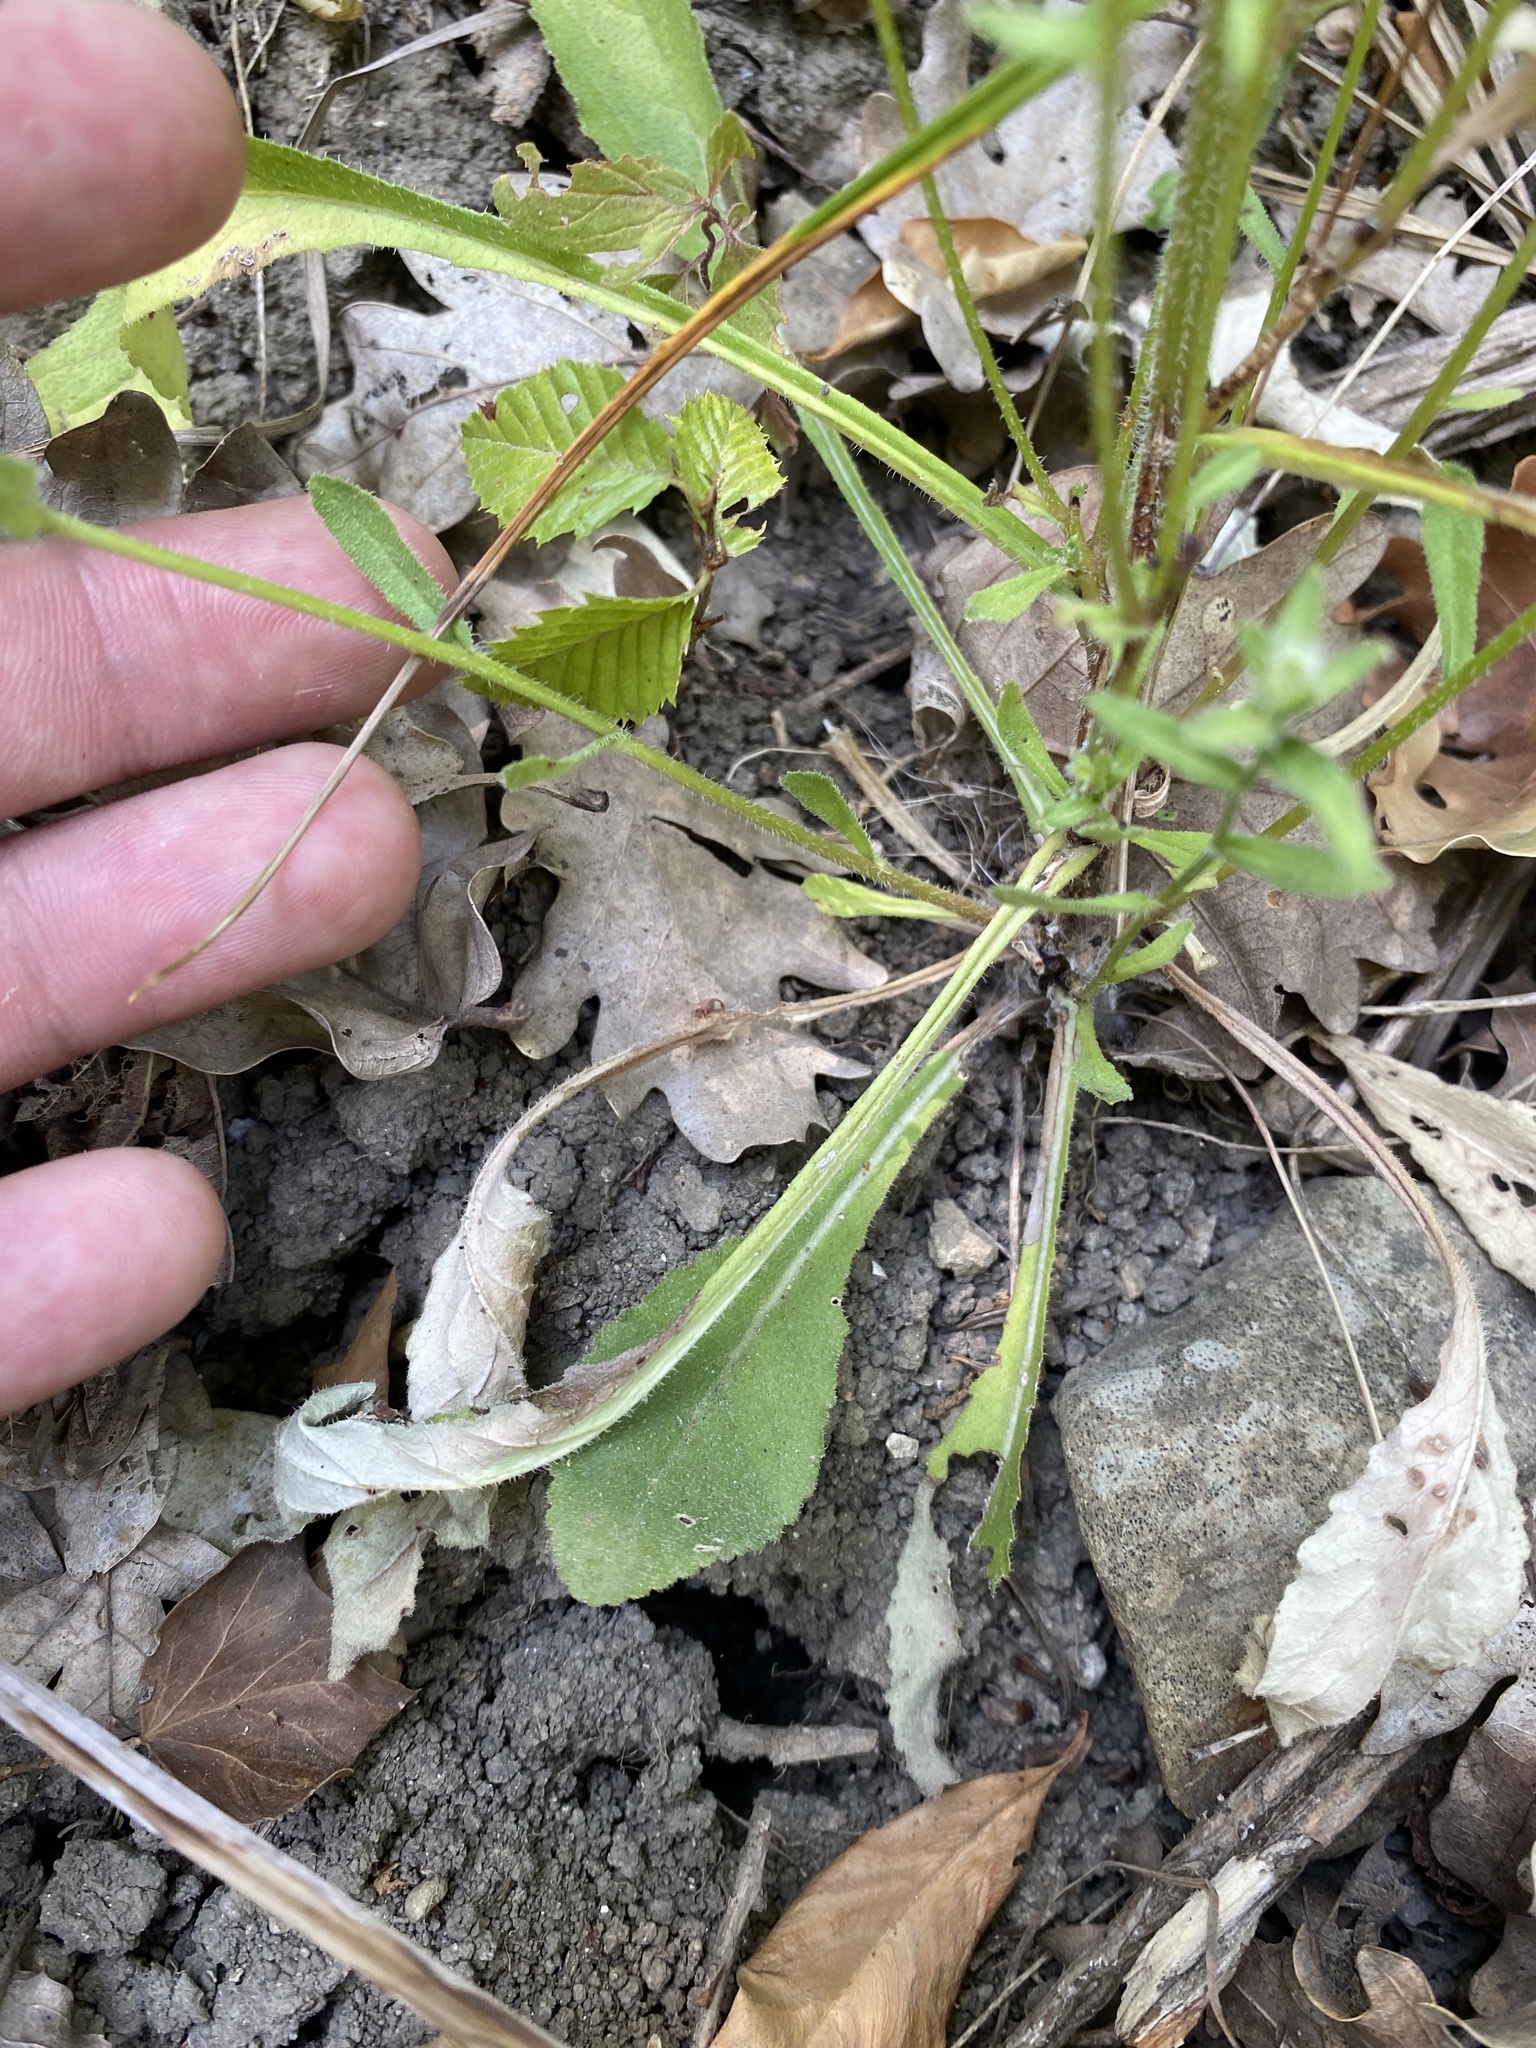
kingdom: Plantae
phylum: Tracheophyta
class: Magnoliopsida
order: Asterales
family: Campanulaceae
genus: Campanula
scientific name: Campanula komarovii
